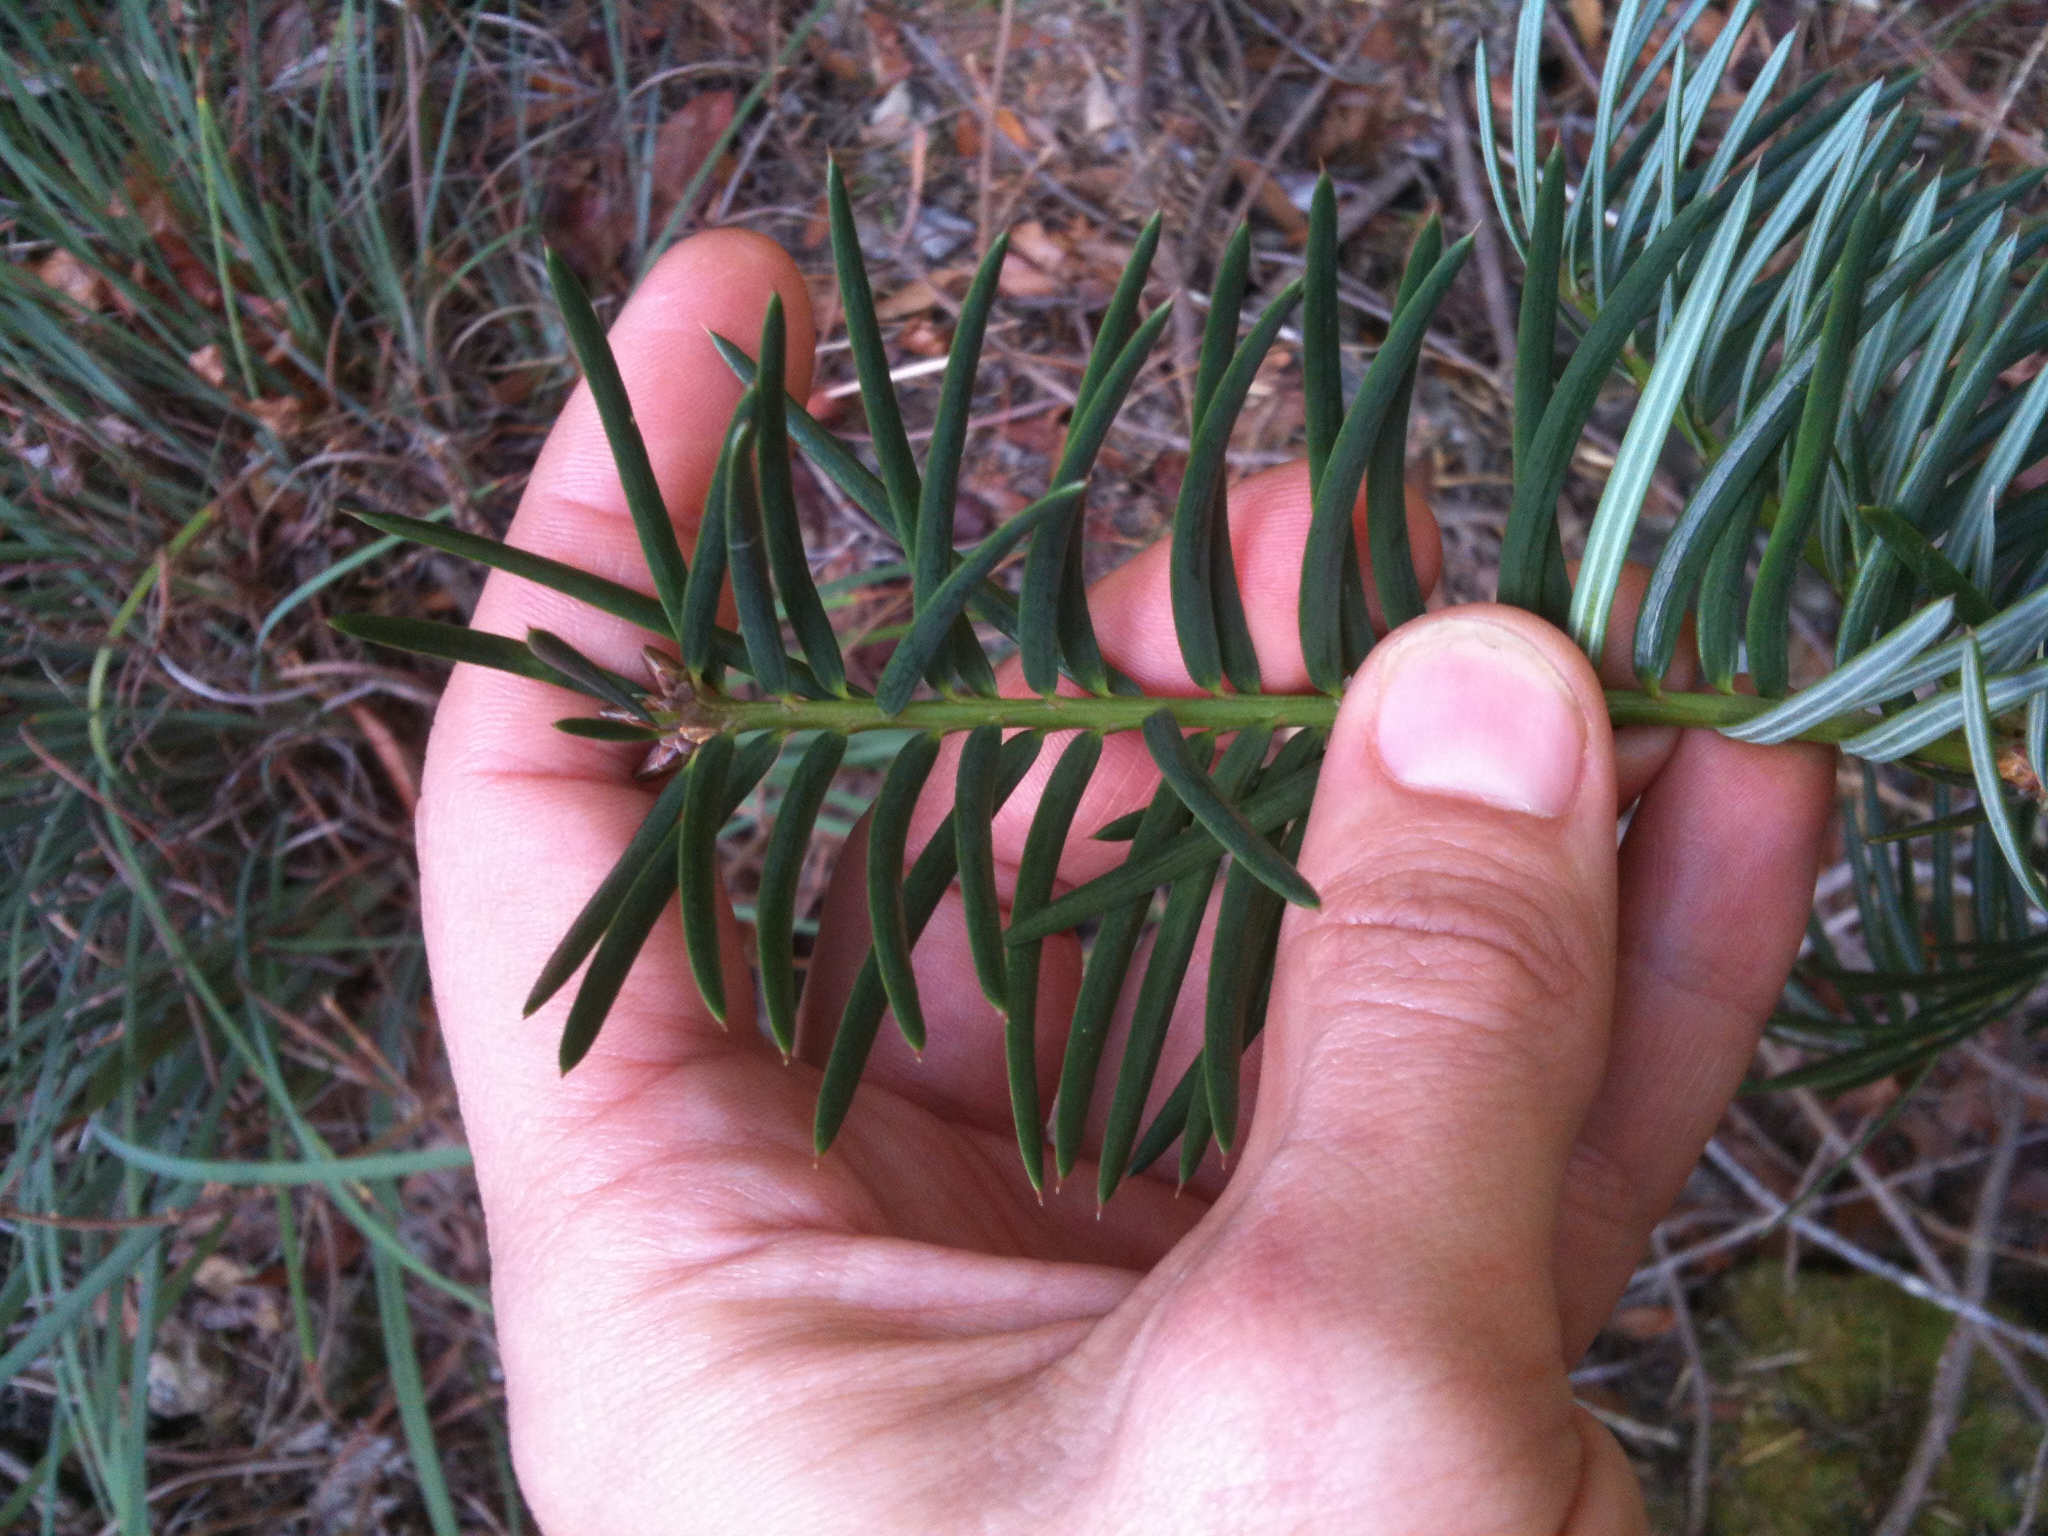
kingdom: Plantae
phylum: Tracheophyta
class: Pinopsida
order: Pinales
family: Taxaceae
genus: Torreya
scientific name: Torreya californica
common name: California torreya
